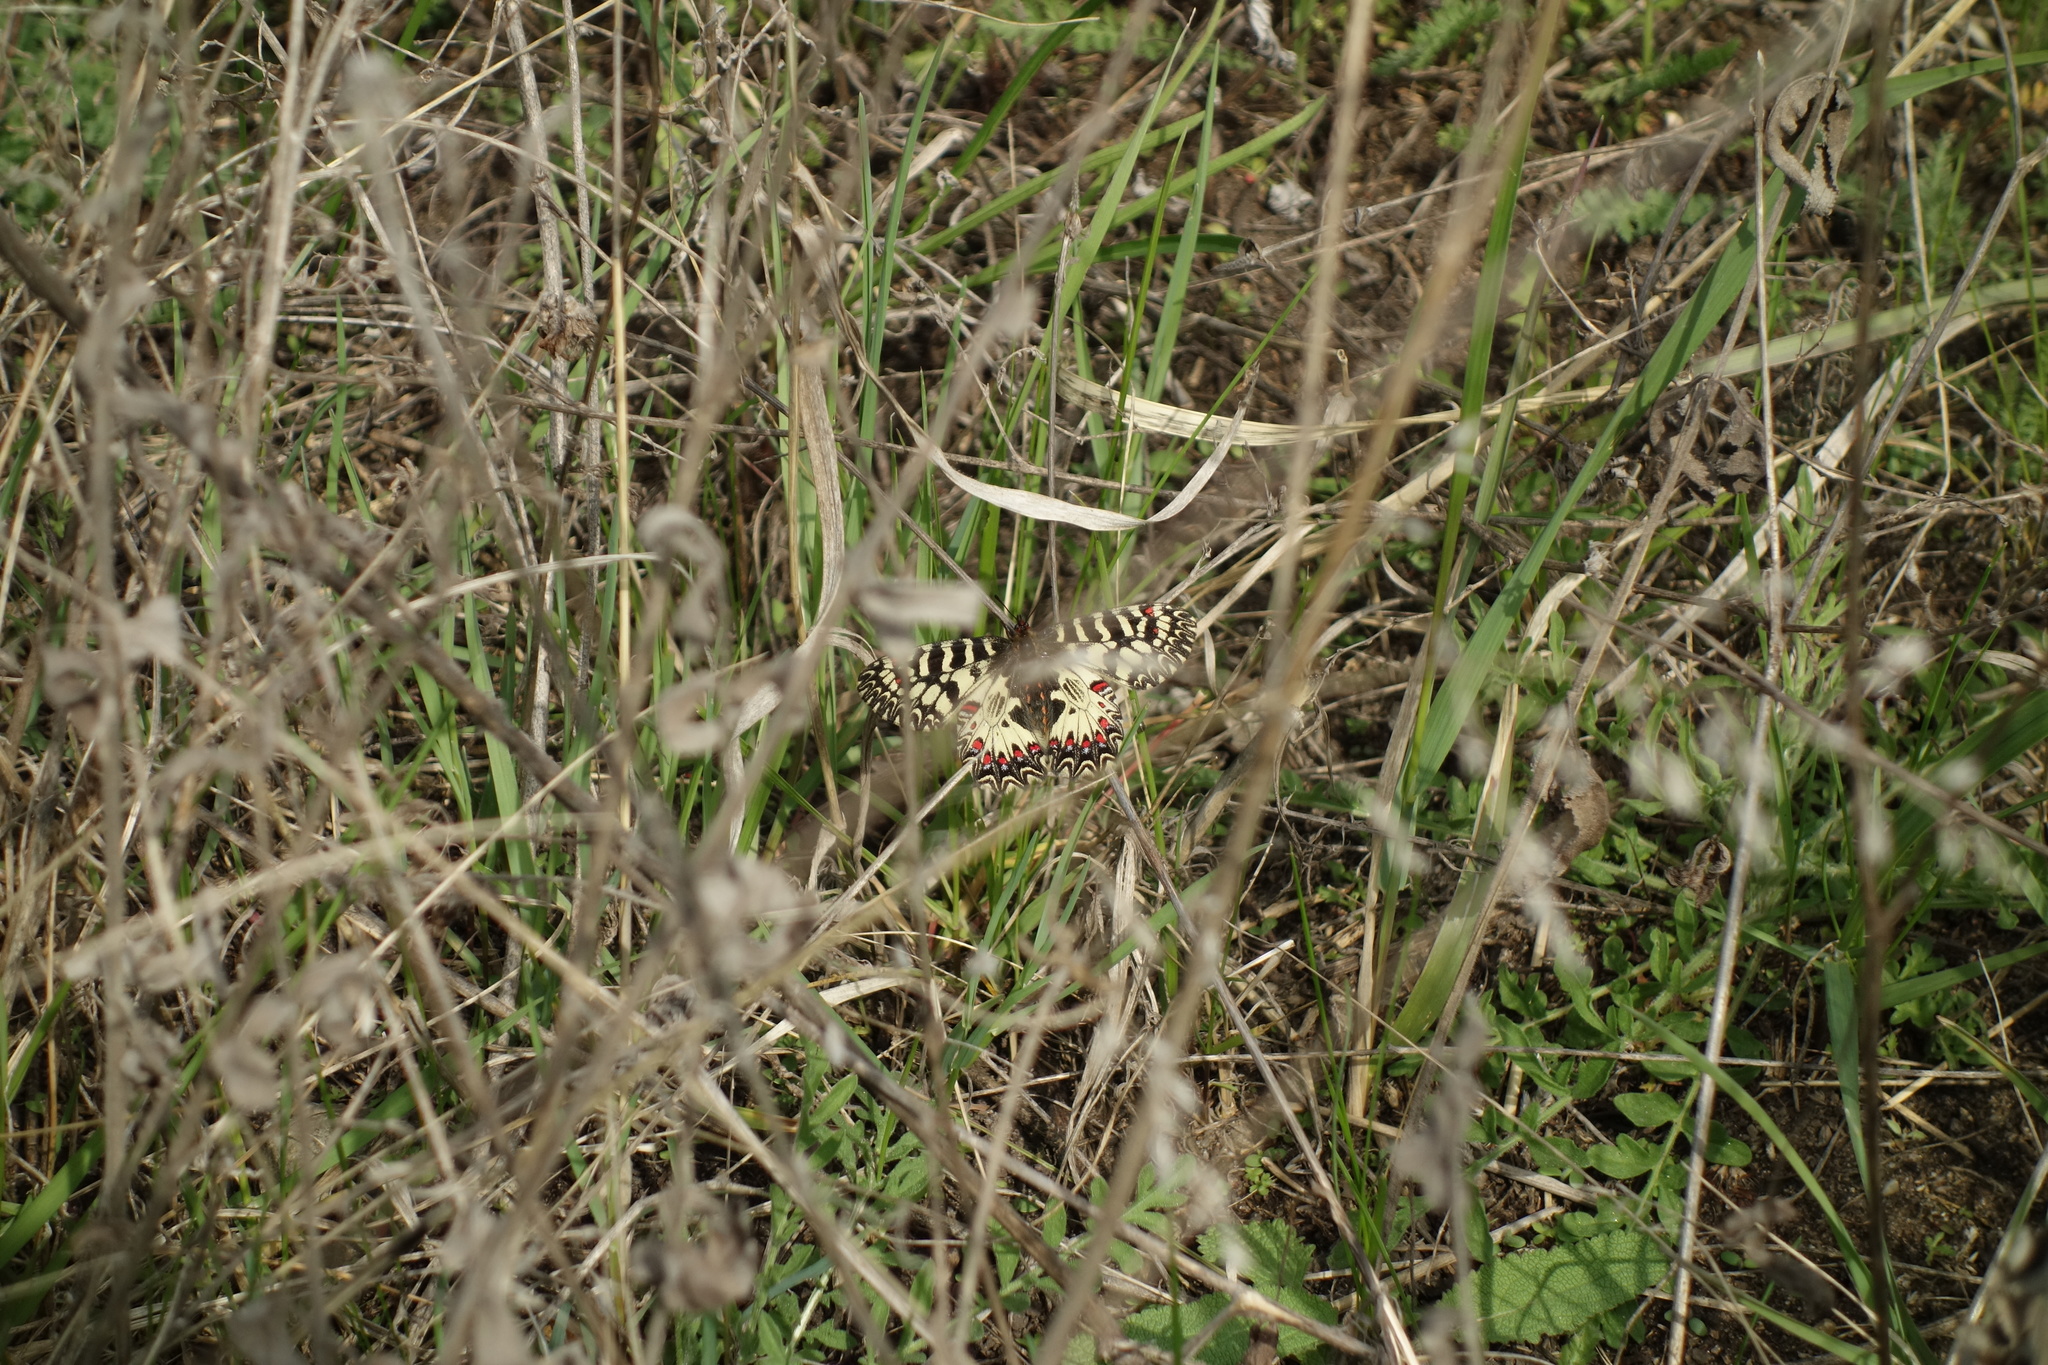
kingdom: Animalia
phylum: Arthropoda
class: Insecta
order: Lepidoptera
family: Papilionidae
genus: Zerynthia
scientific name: Zerynthia polyxena
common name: Southern festoon
